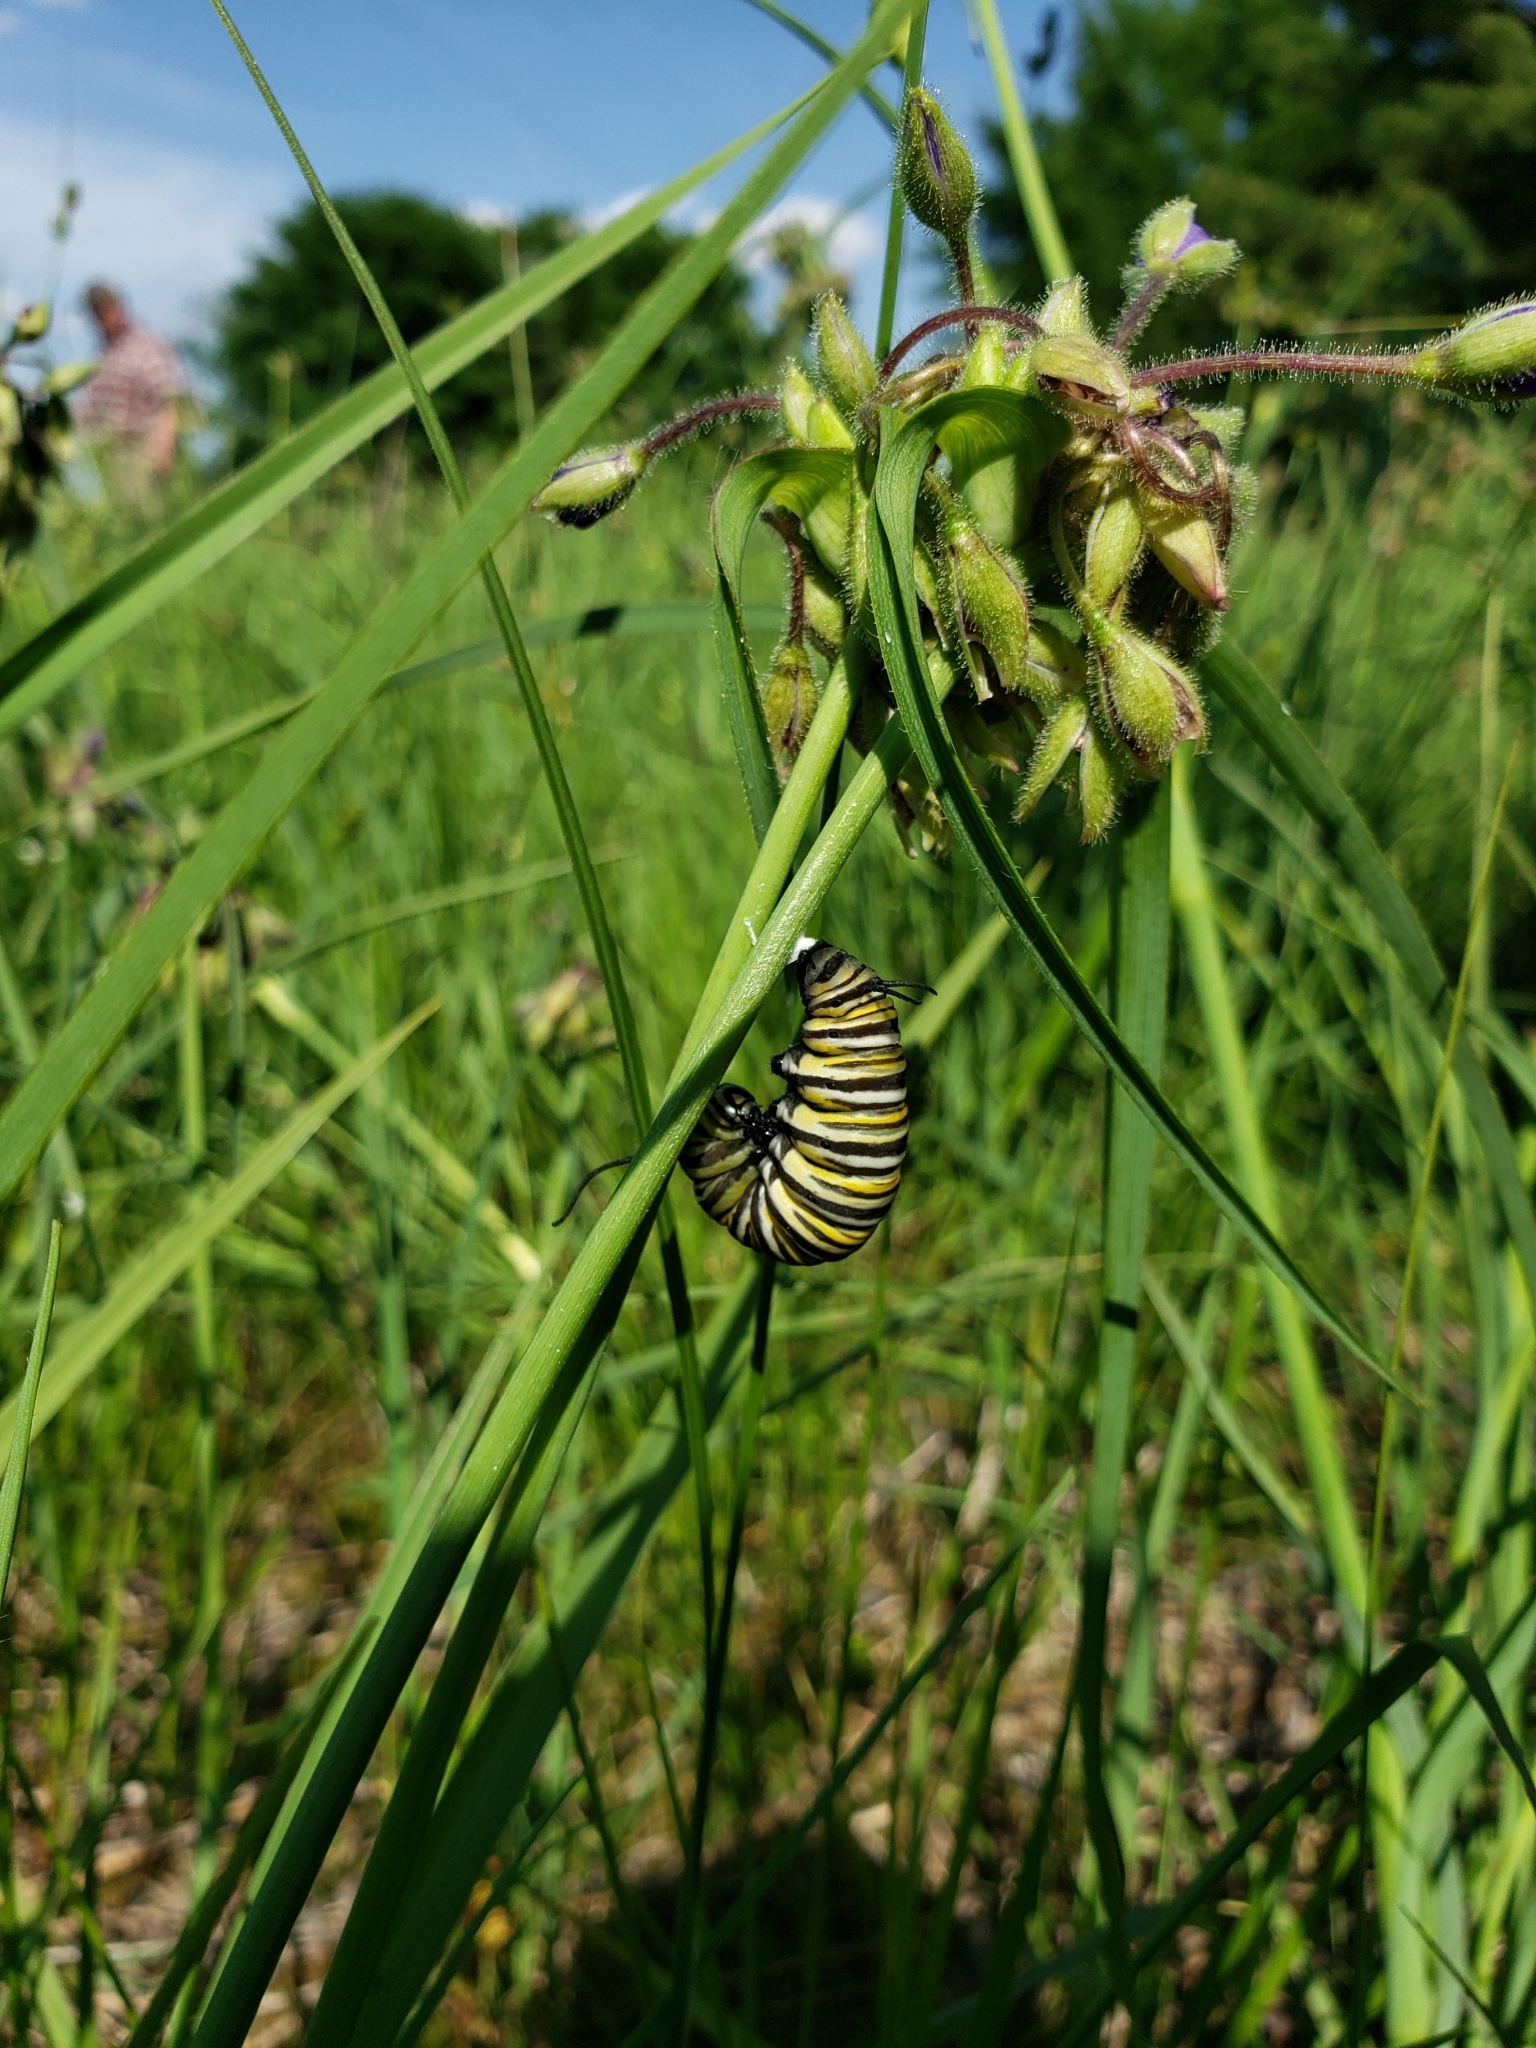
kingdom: Animalia
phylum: Arthropoda
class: Insecta
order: Lepidoptera
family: Nymphalidae
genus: Danaus
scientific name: Danaus plexippus
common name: Monarch
